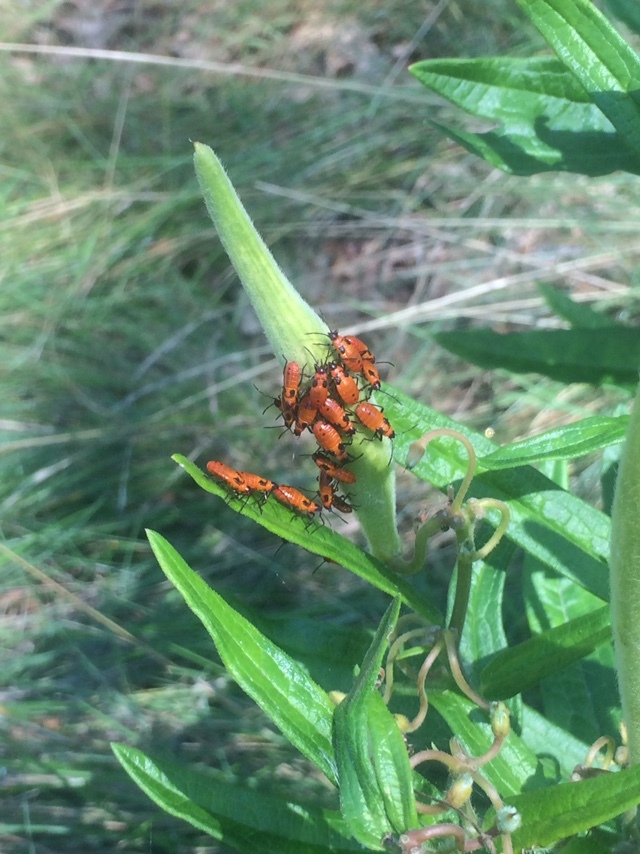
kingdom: Animalia
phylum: Arthropoda
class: Insecta
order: Hemiptera
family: Lygaeidae
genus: Oncopeltus
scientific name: Oncopeltus fasciatus
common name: Large milkweed bug
